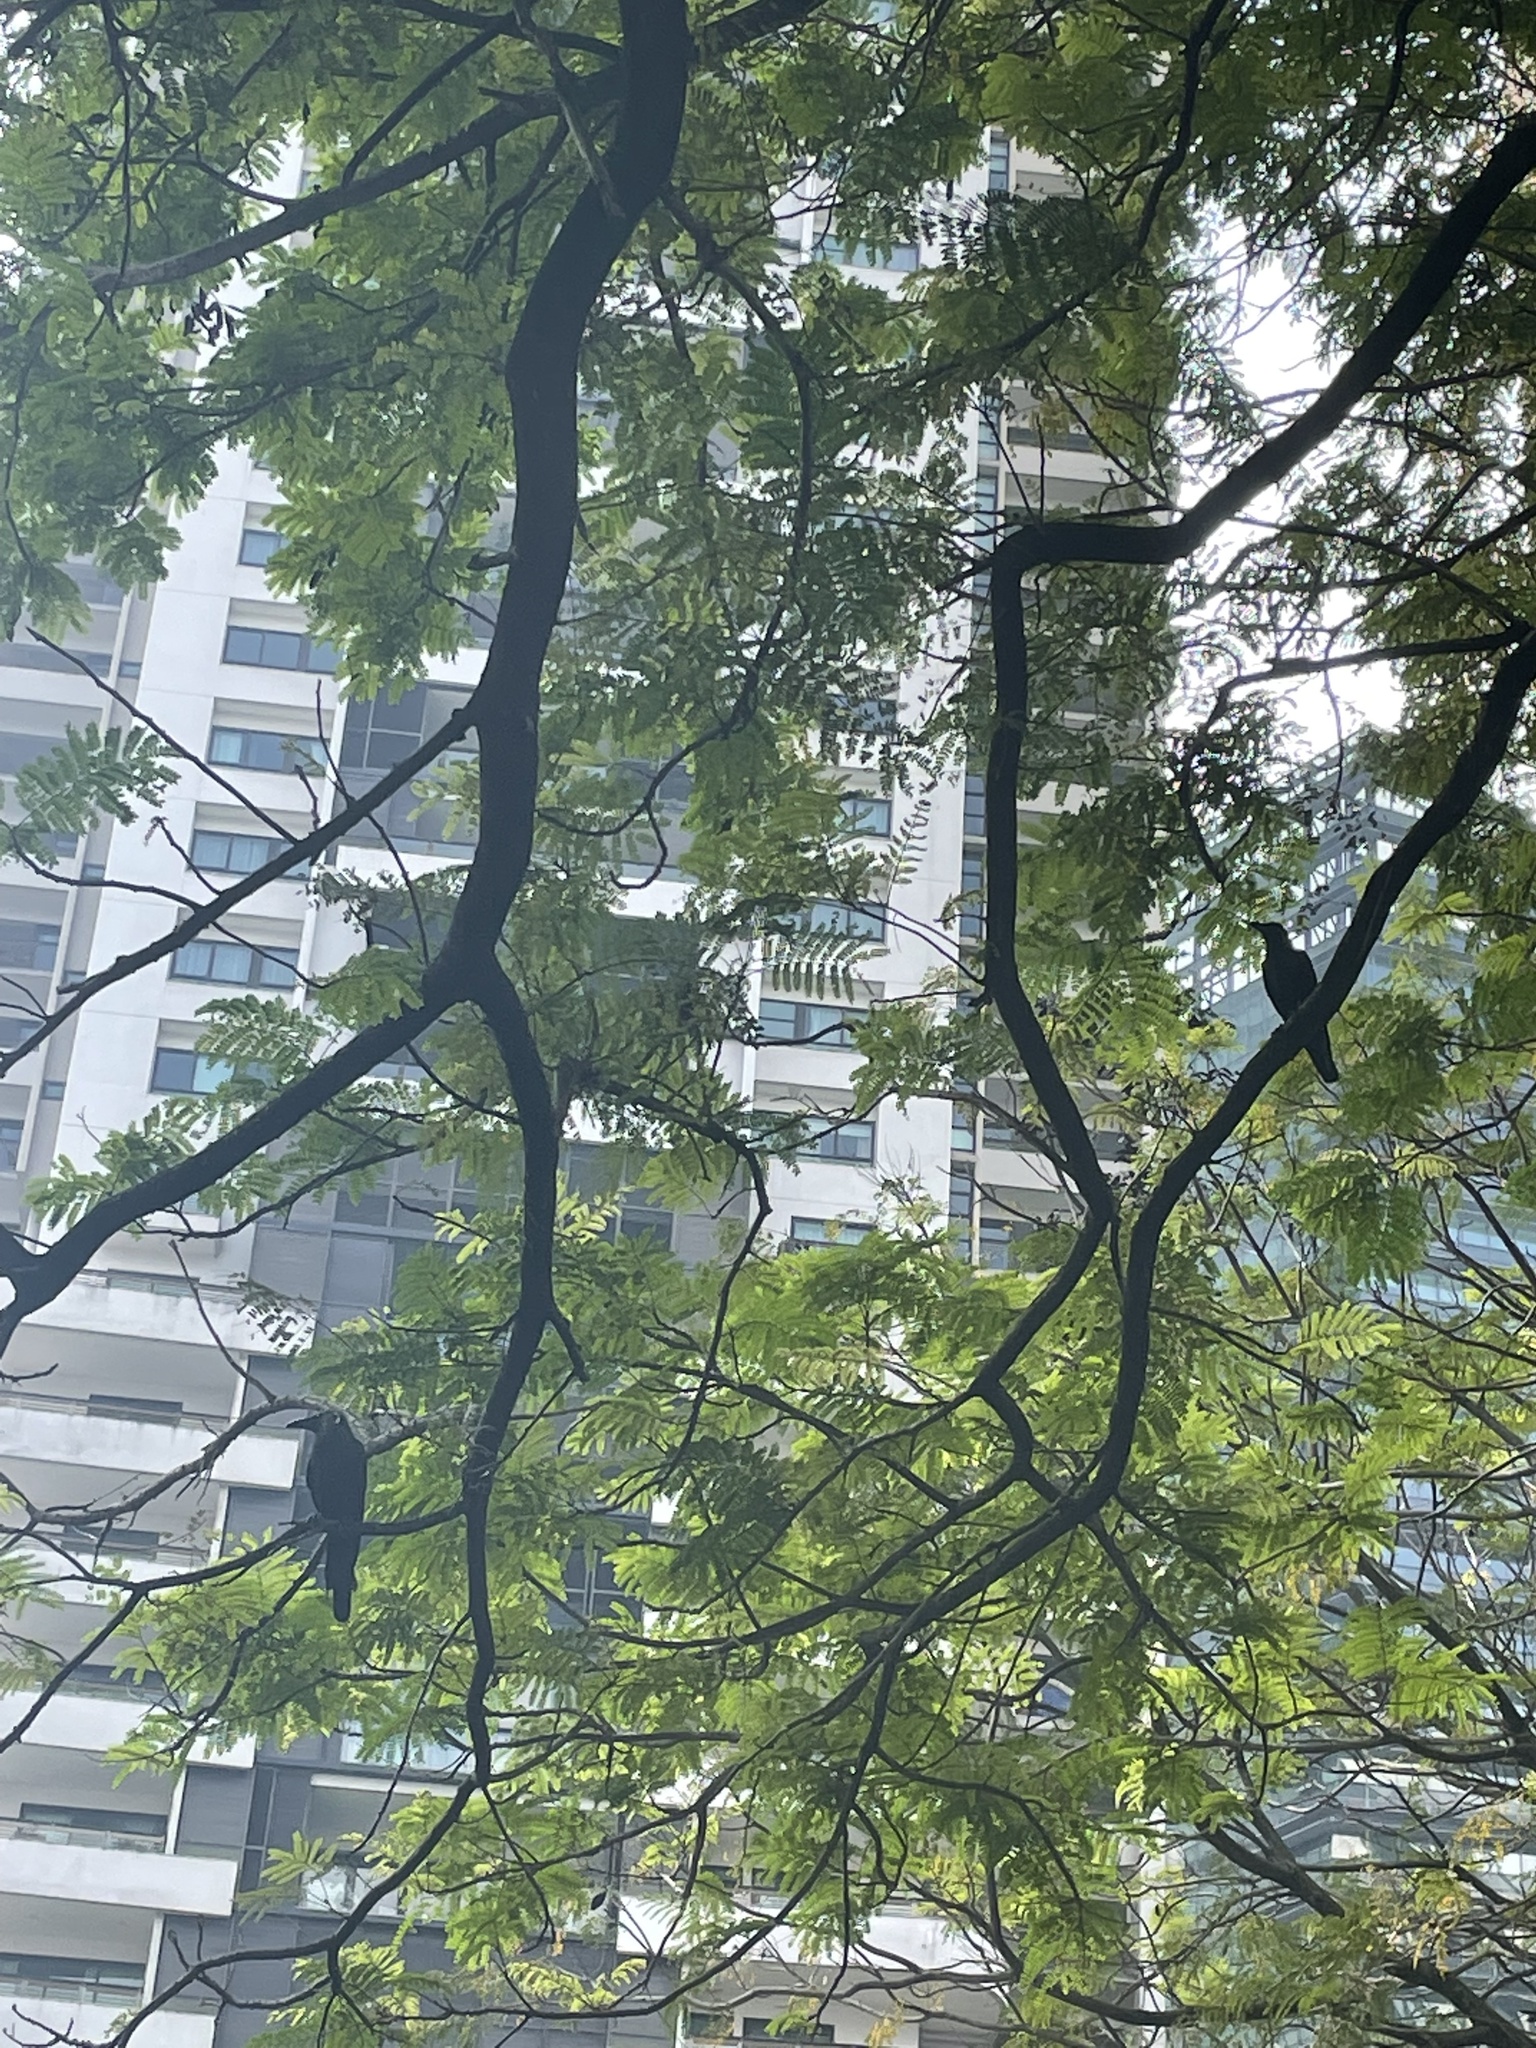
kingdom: Animalia
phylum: Chordata
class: Aves
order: Passeriformes
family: Corvidae
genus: Corvus
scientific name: Corvus splendens
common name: House crow
